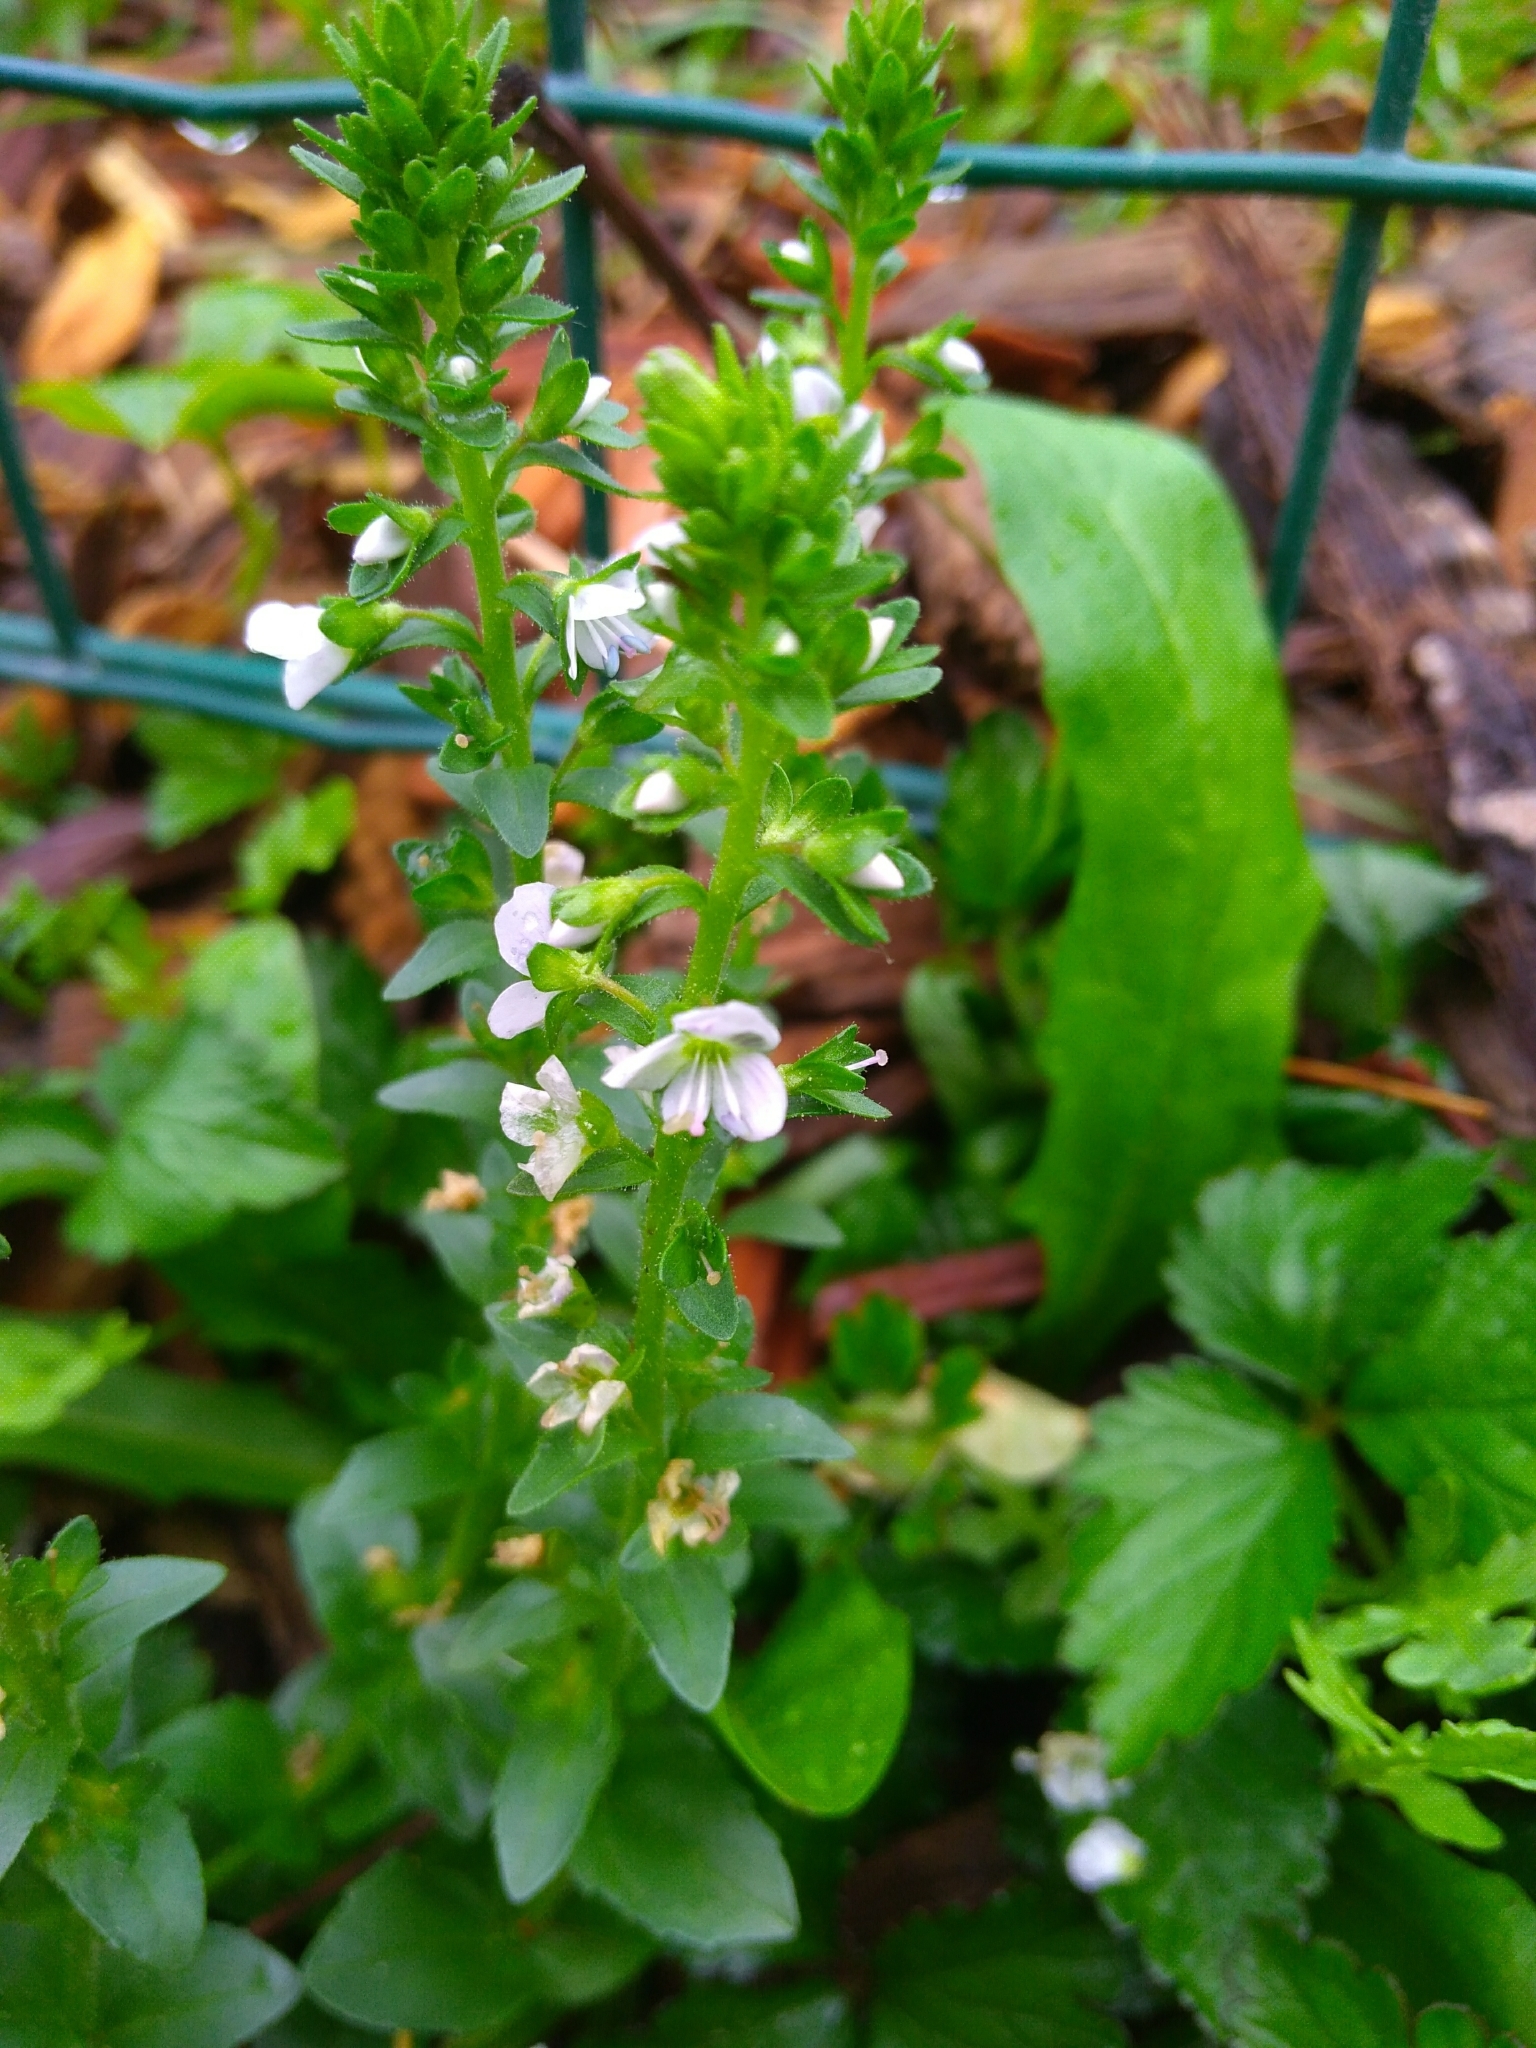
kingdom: Plantae
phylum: Tracheophyta
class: Magnoliopsida
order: Lamiales
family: Plantaginaceae
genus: Veronica
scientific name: Veronica serpyllifolia
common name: Thyme-leaved speedwell
